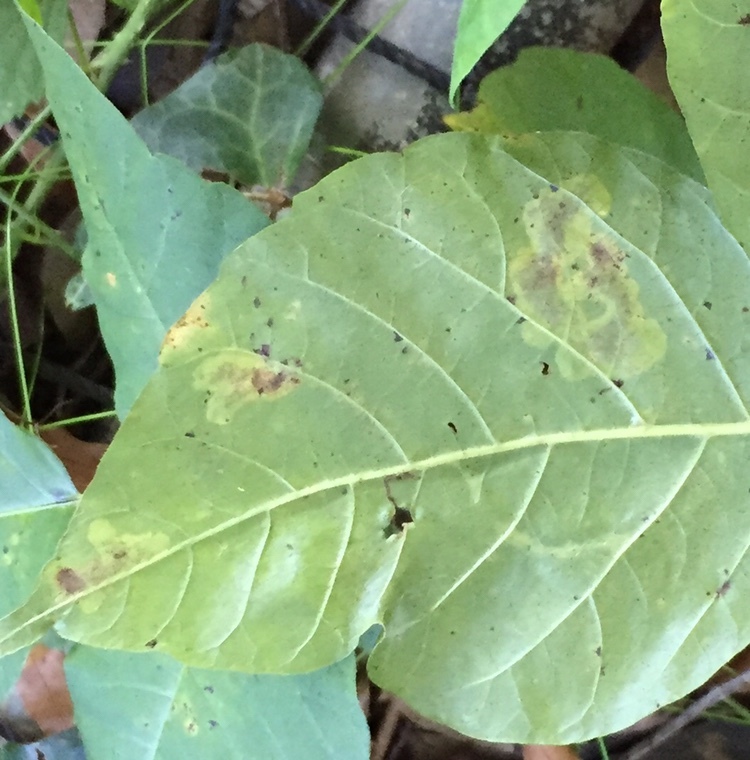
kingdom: Animalia
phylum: Arthropoda
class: Insecta
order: Lepidoptera
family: Gracillariidae
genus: Cameraria
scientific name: Cameraria guttifinitella
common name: Poison ivy leaf-miner moth
